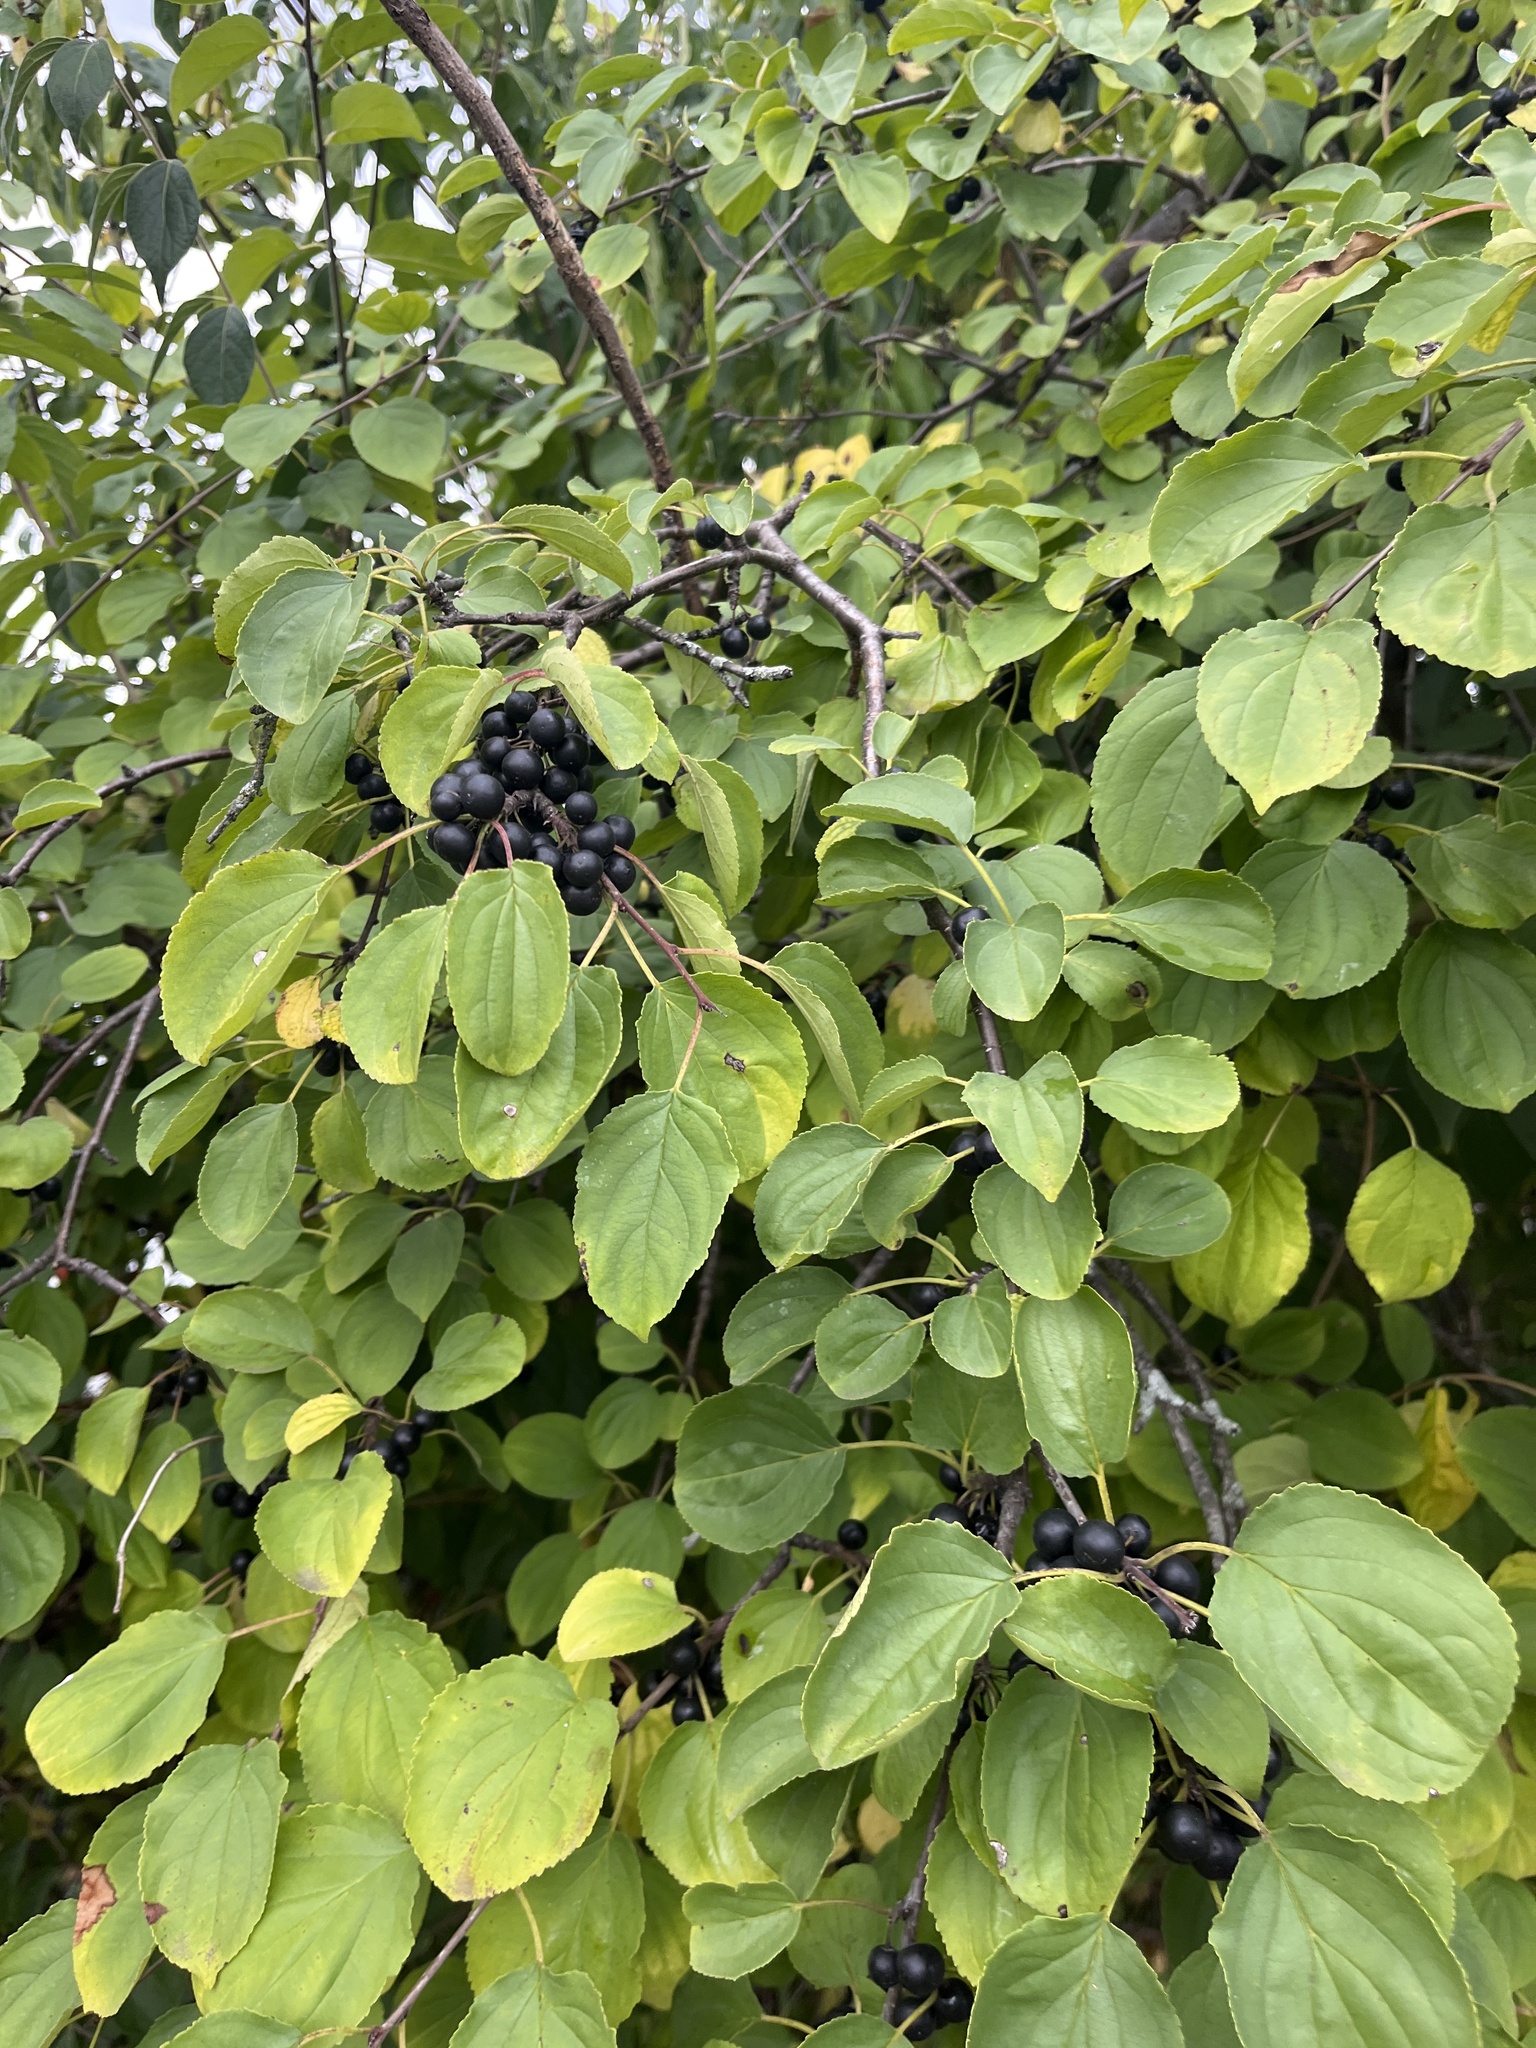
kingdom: Plantae
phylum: Tracheophyta
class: Magnoliopsida
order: Rosales
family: Rhamnaceae
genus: Rhamnus
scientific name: Rhamnus cathartica
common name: Common buckthorn
